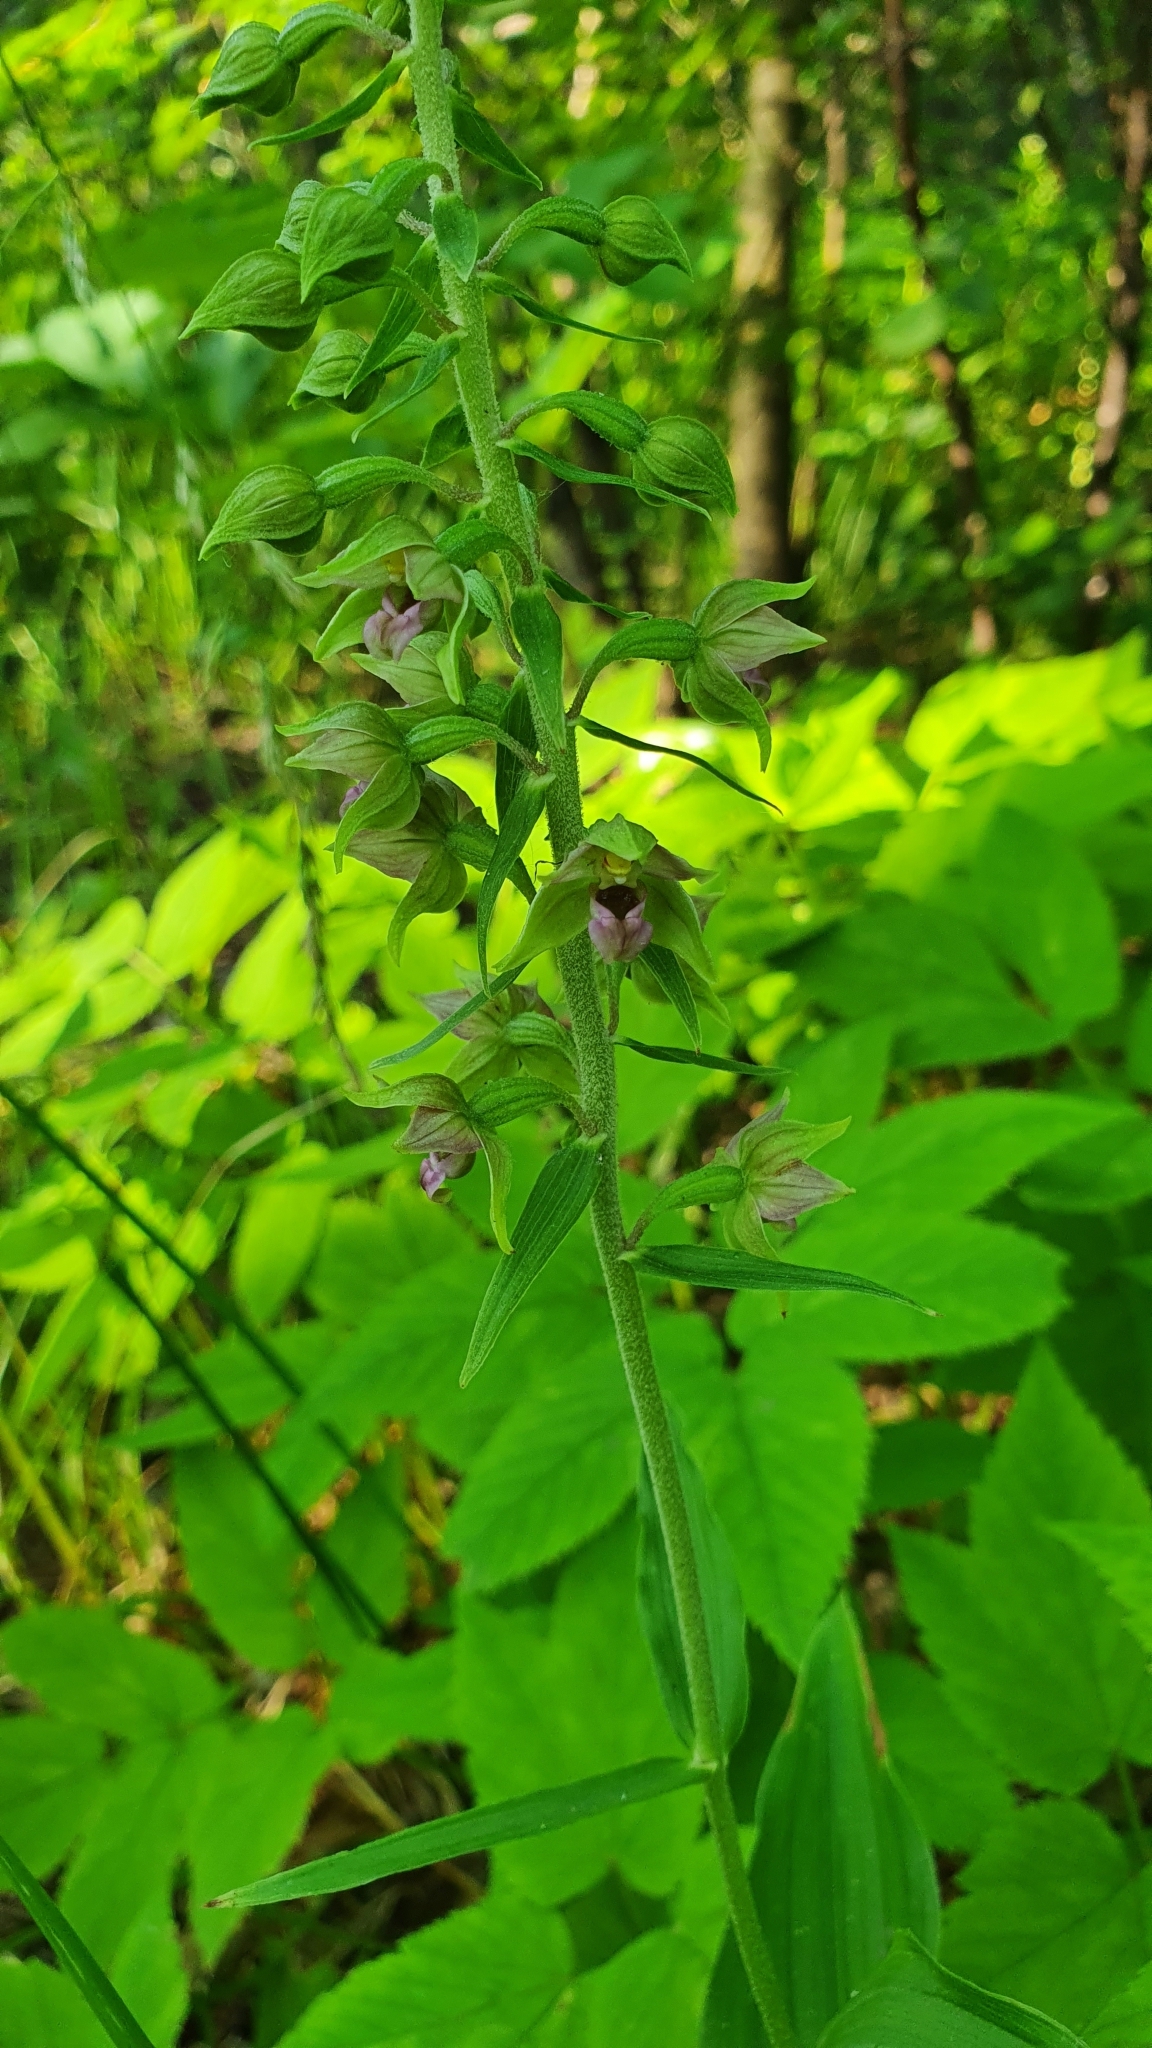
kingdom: Plantae
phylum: Tracheophyta
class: Liliopsida
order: Asparagales
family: Orchidaceae
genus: Epipactis
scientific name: Epipactis helleborine
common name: Broad-leaved helleborine
